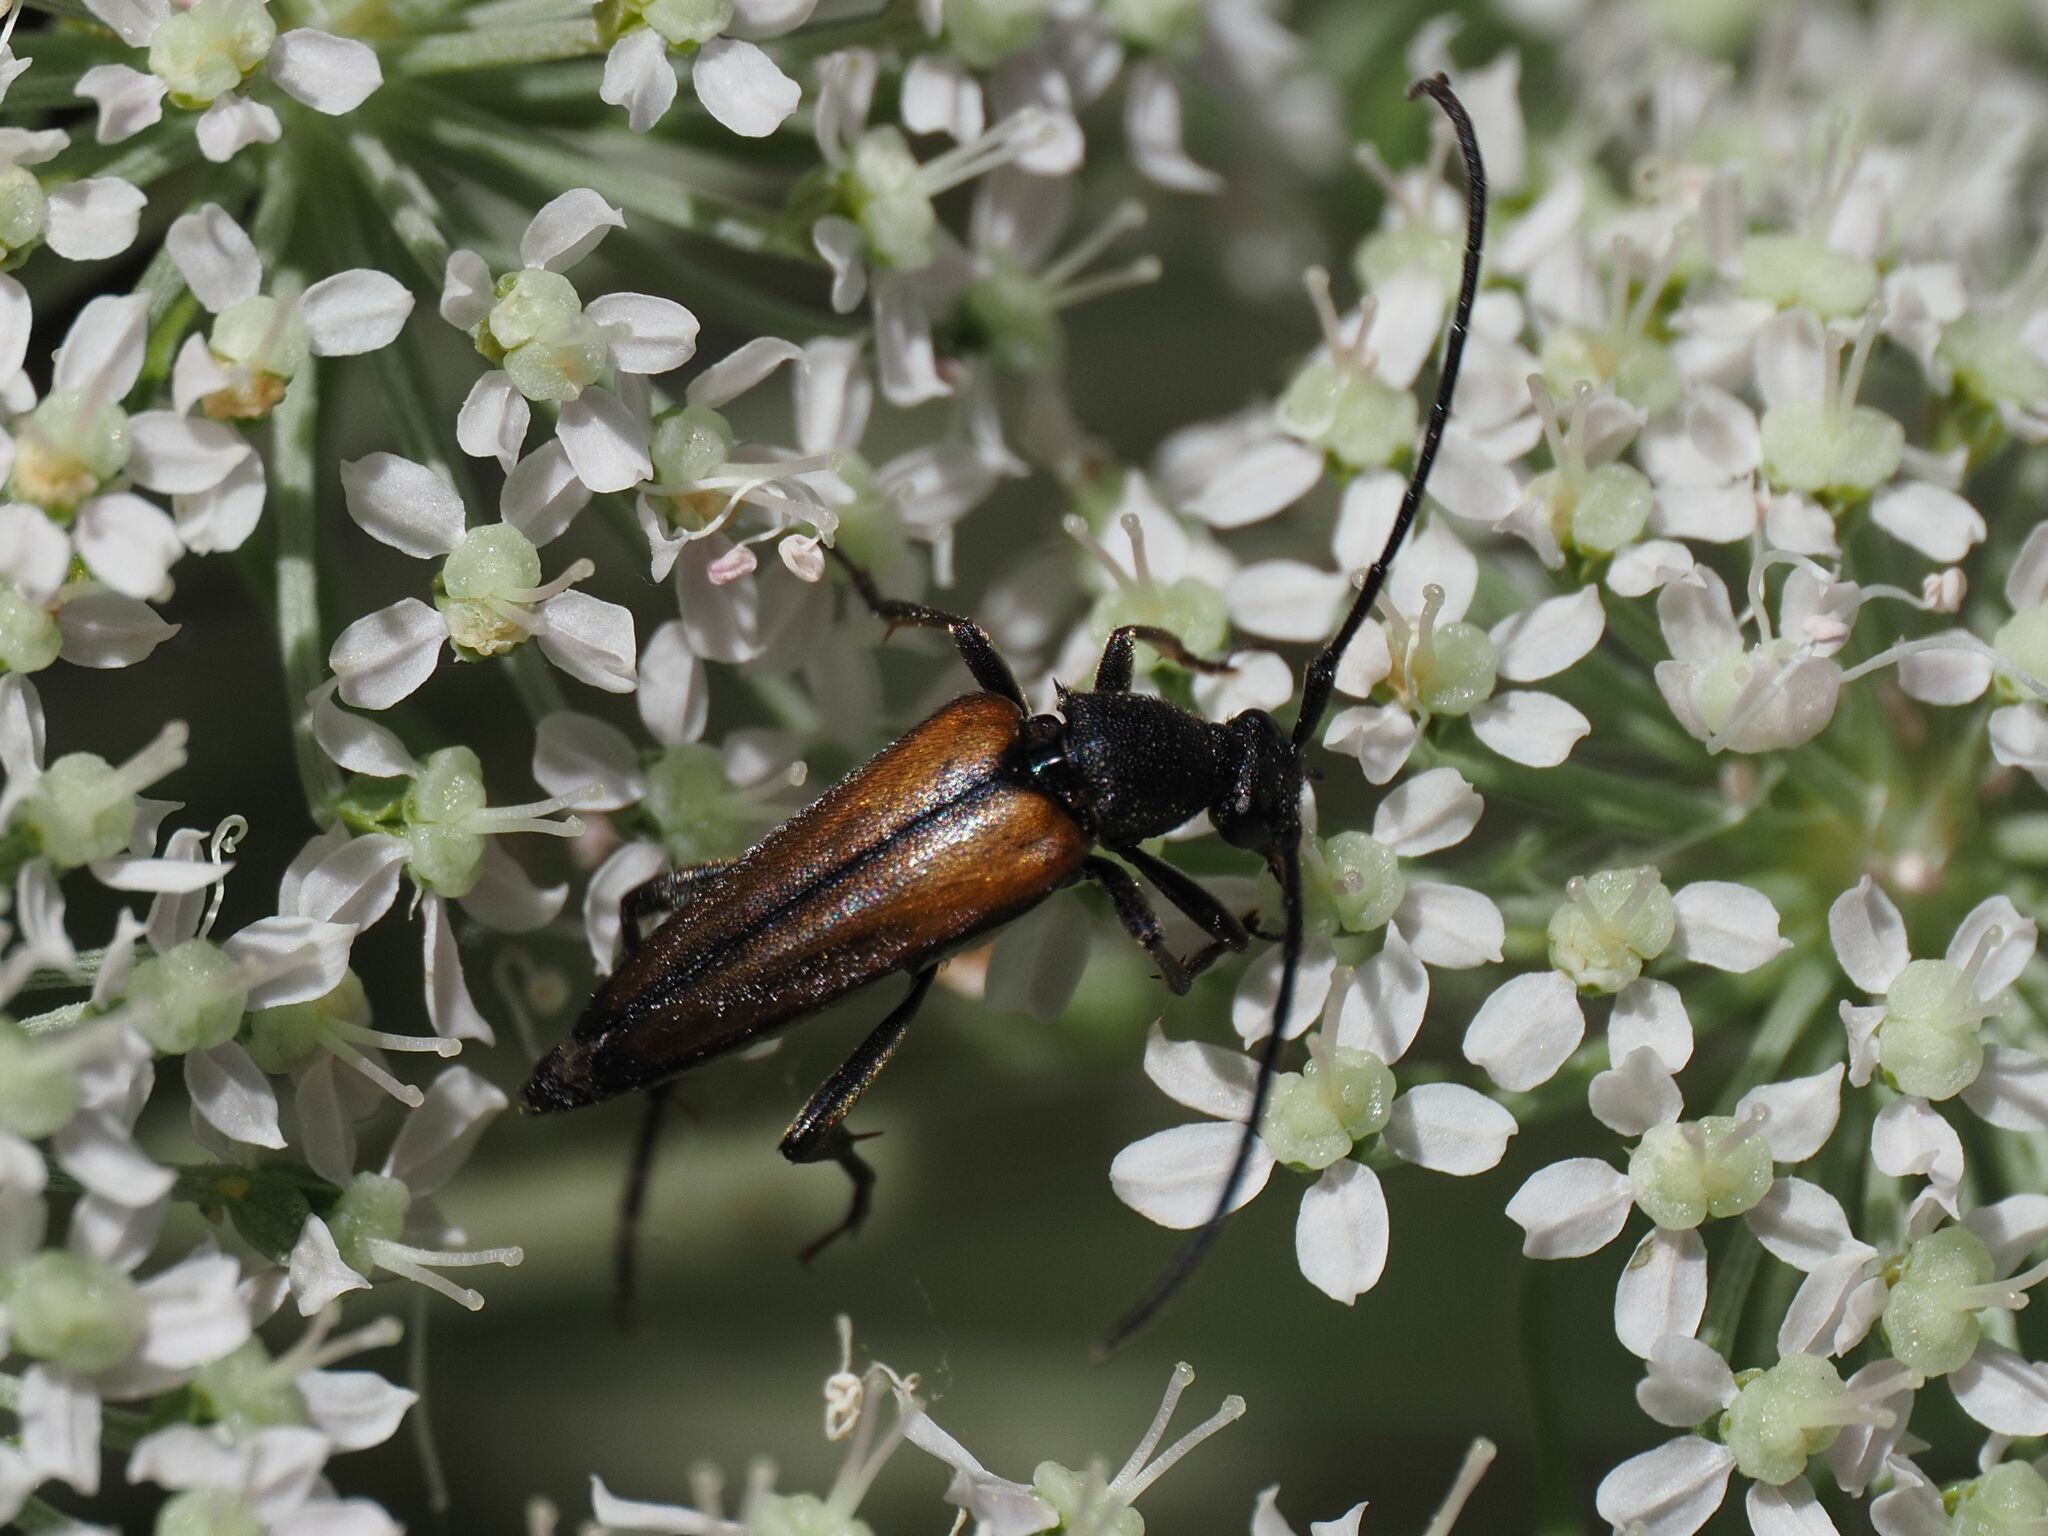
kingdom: Animalia
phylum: Arthropoda
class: Insecta
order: Coleoptera
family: Cerambycidae
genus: Stenurella
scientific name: Stenurella melanura
